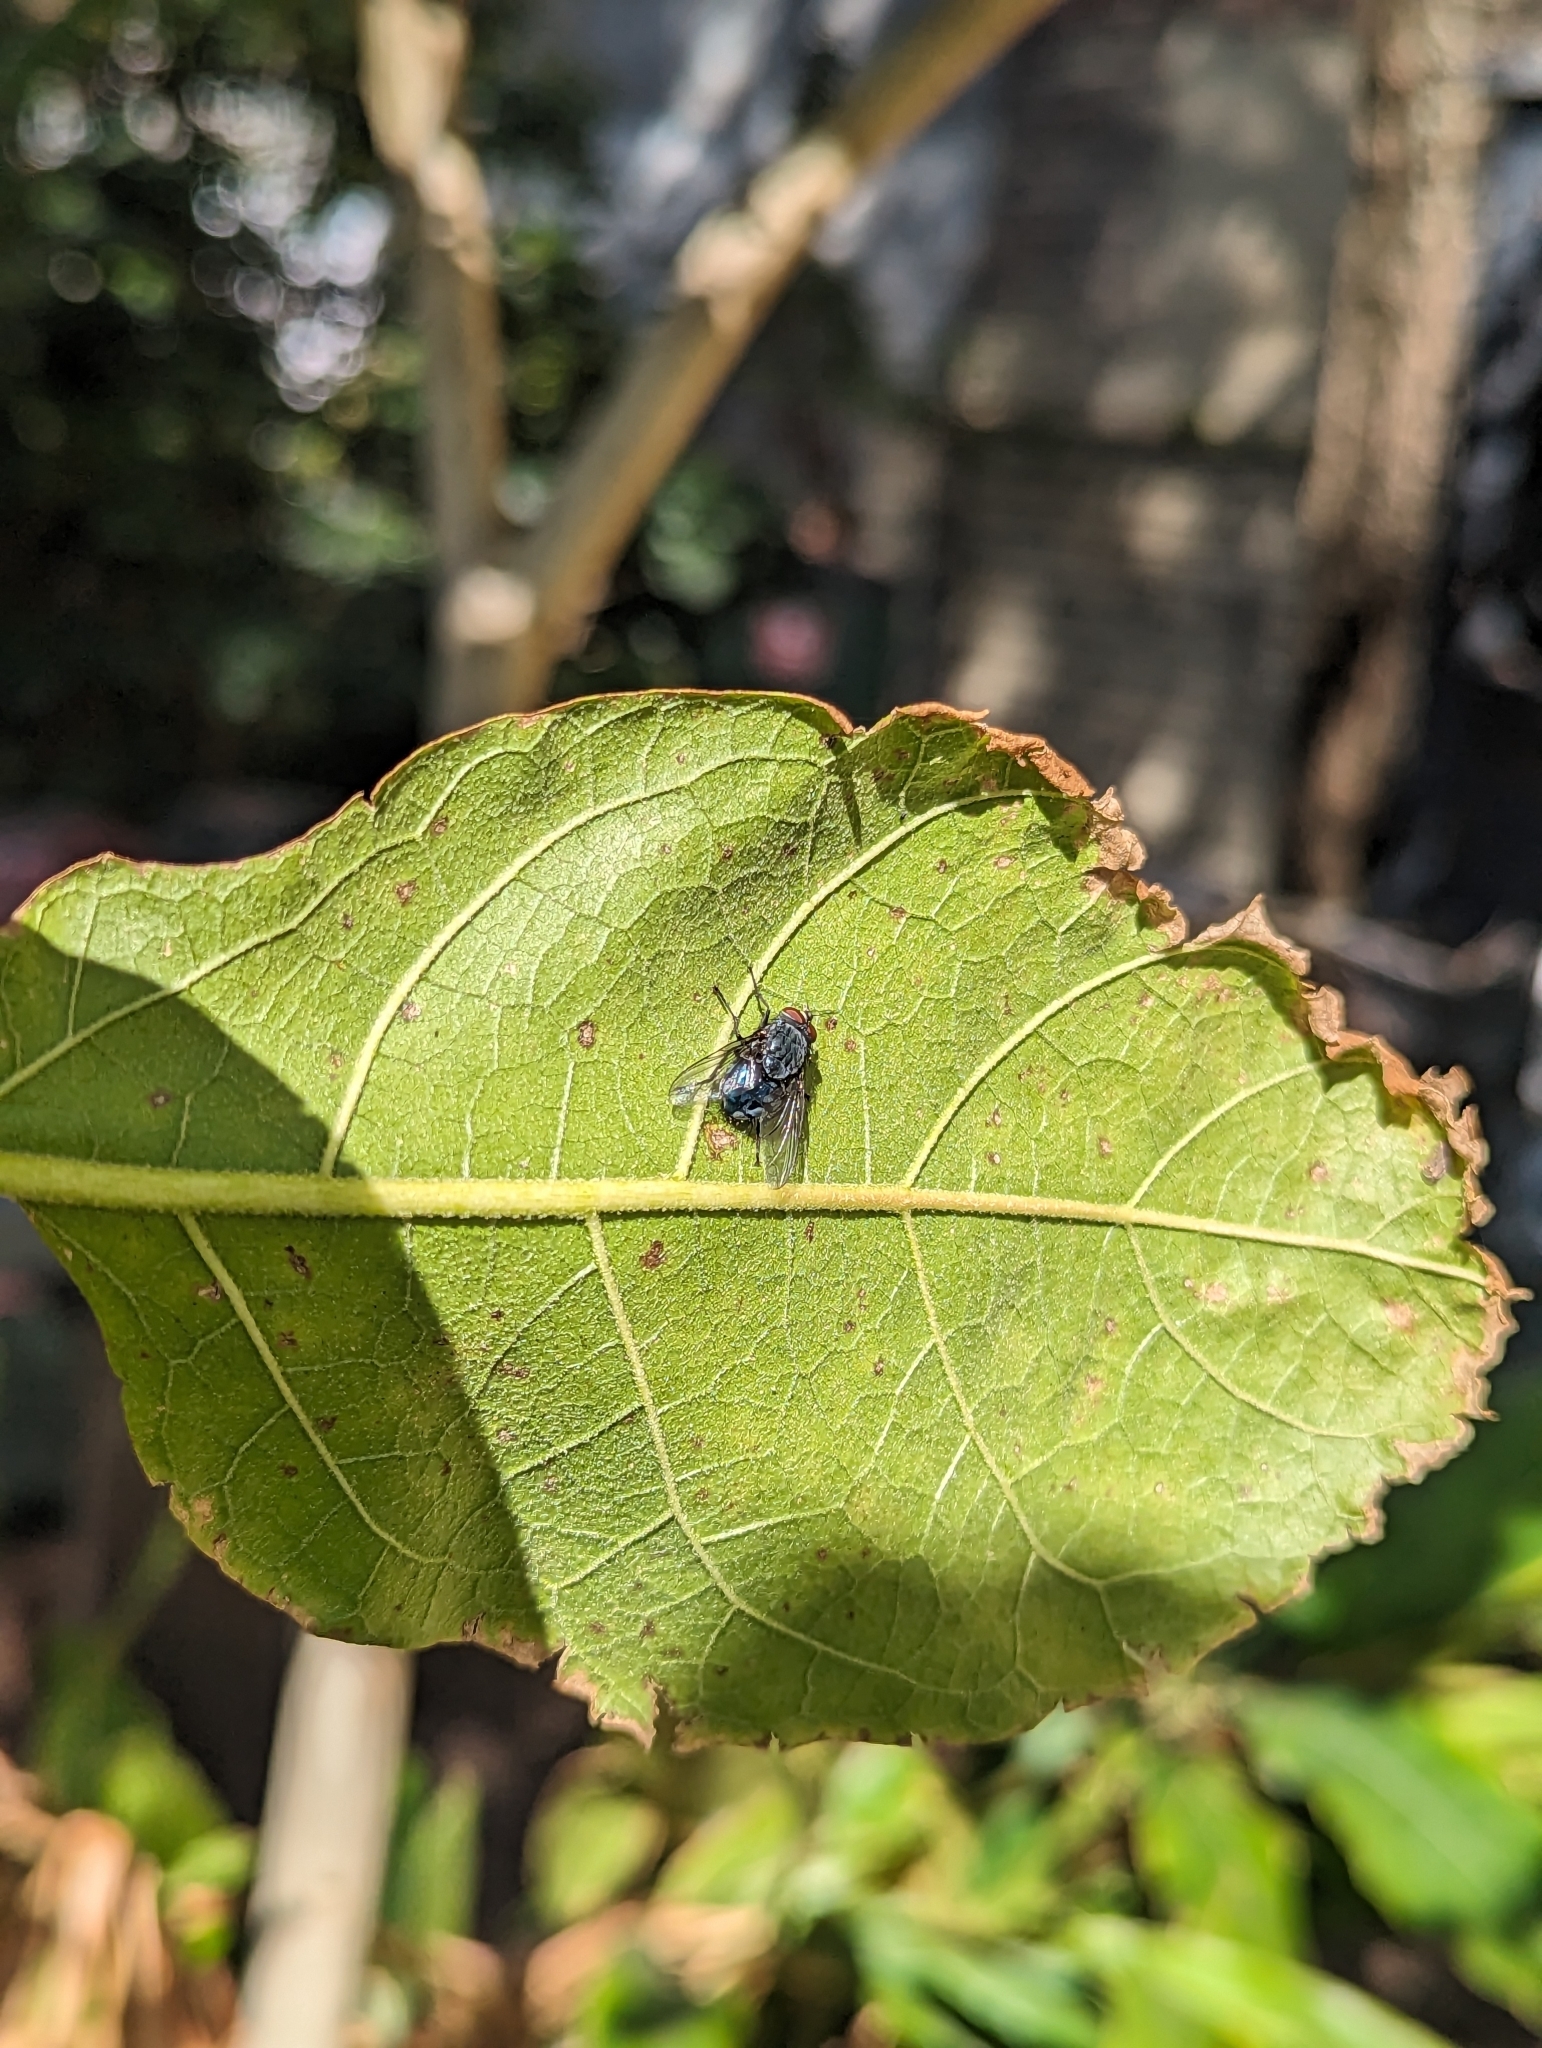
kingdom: Animalia
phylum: Arthropoda
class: Insecta
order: Diptera
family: Calliphoridae
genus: Calliphora
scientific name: Calliphora vicina
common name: Common blow flie
